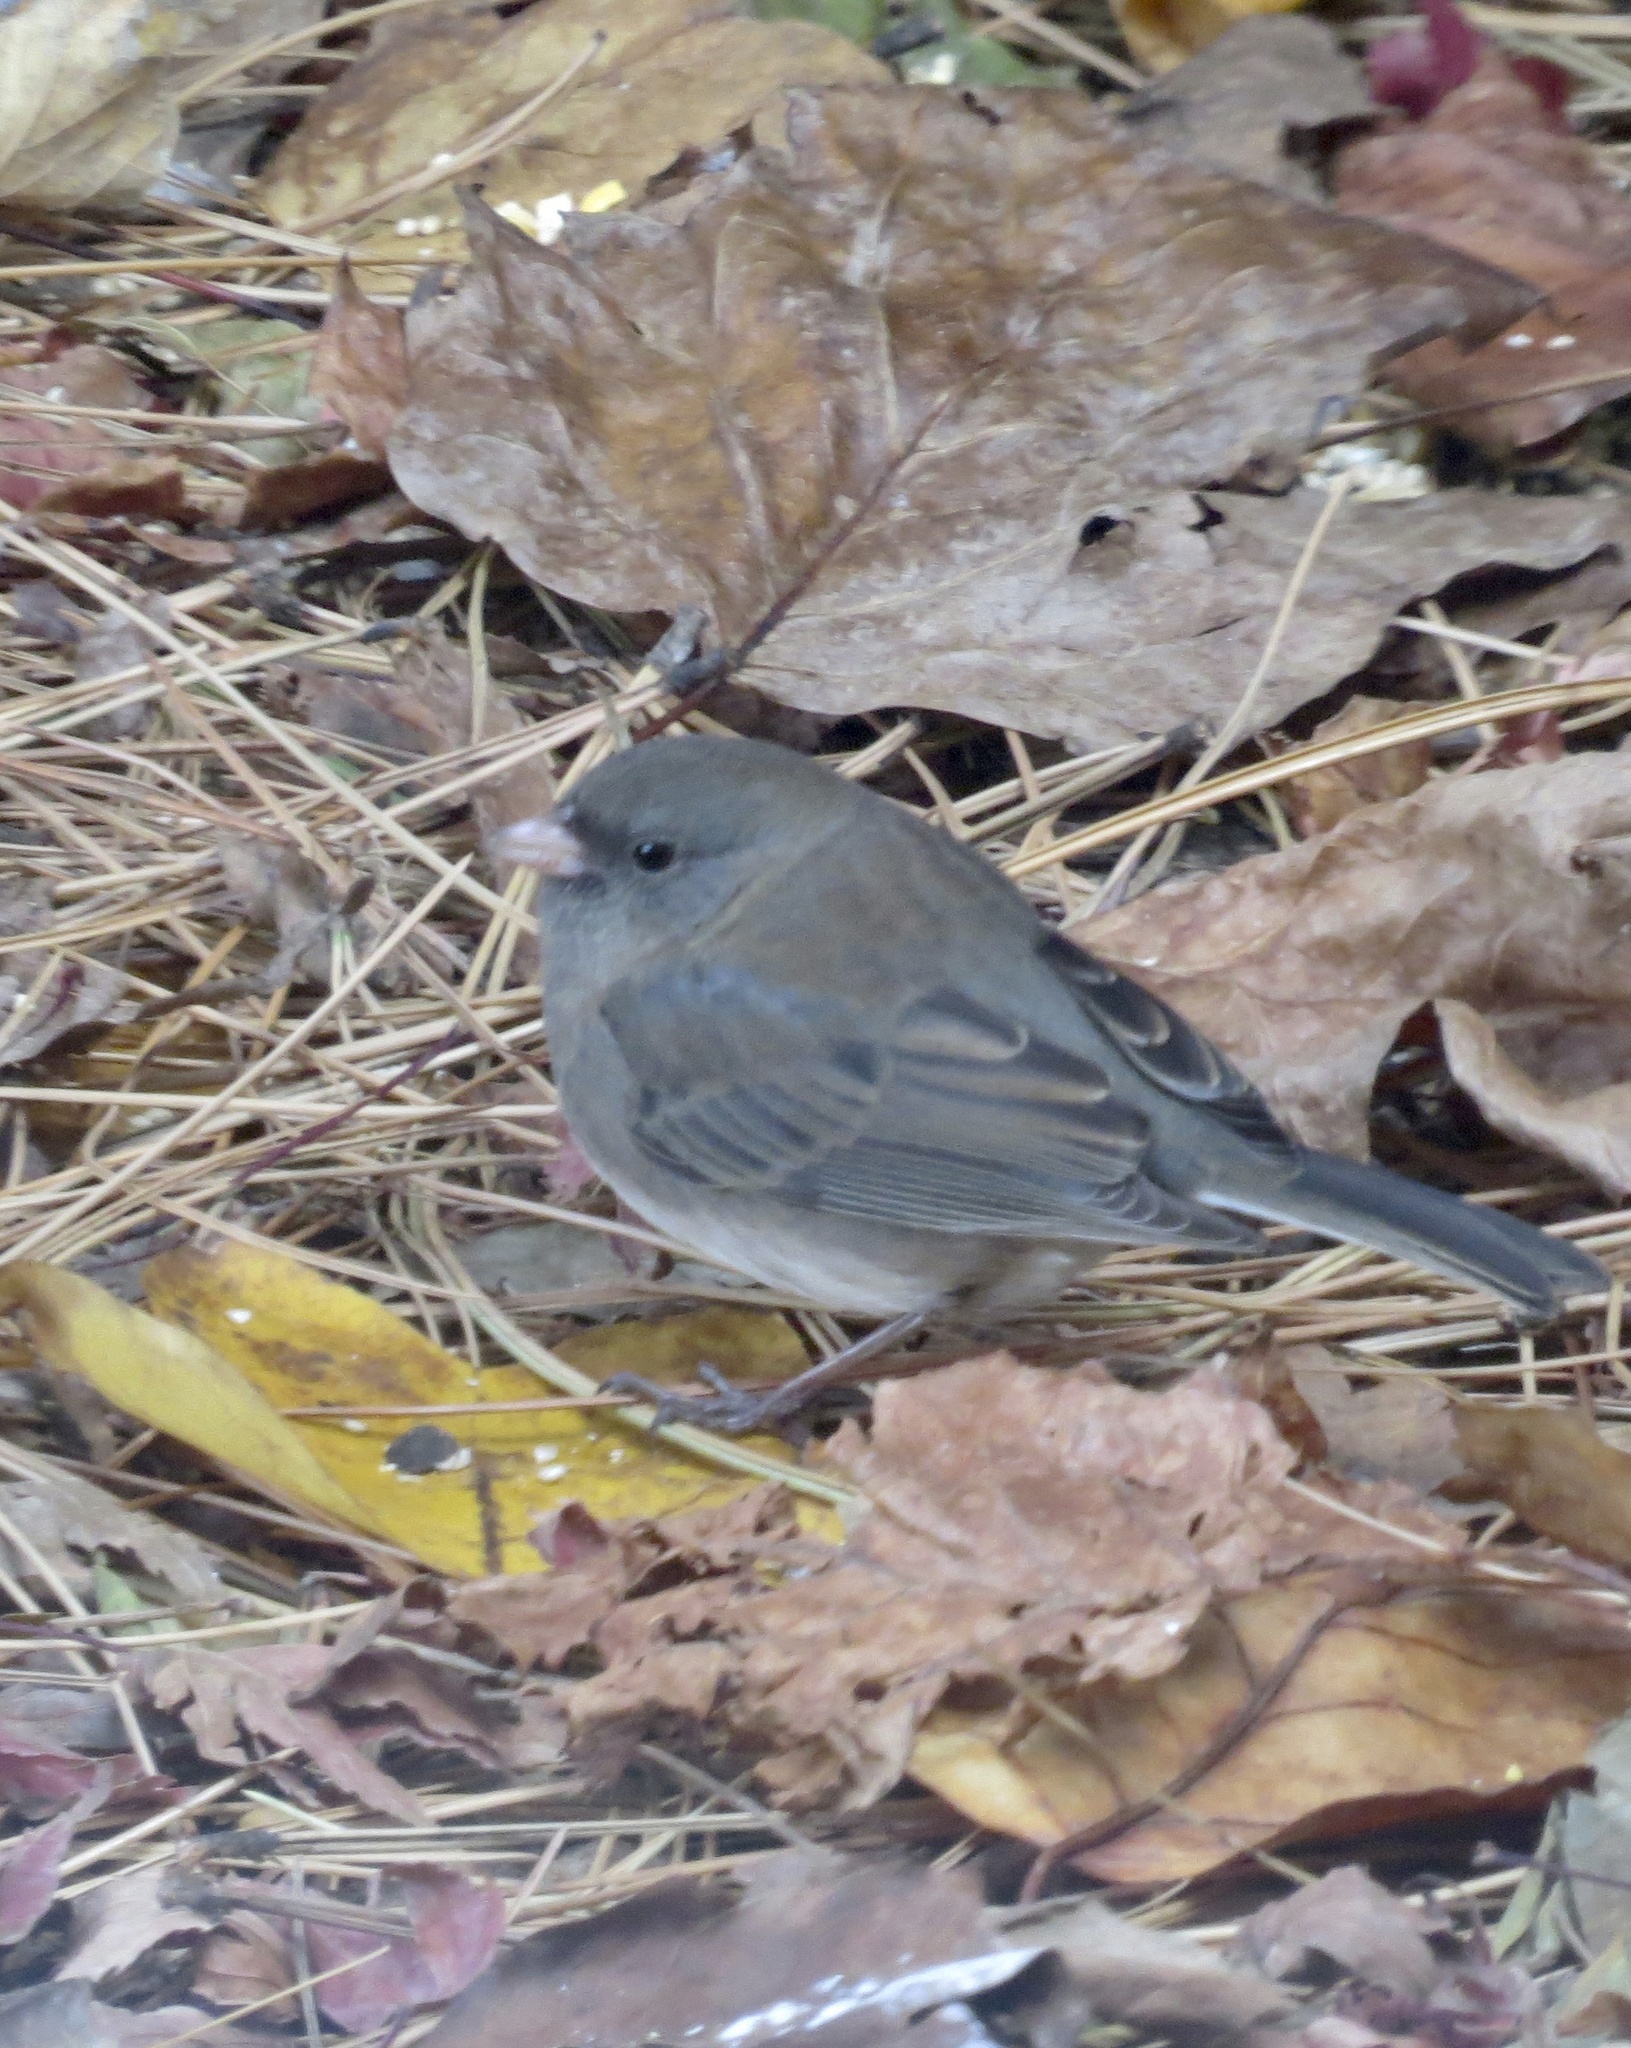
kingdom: Animalia
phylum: Chordata
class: Aves
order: Passeriformes
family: Passerellidae
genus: Junco
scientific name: Junco hyemalis
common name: Dark-eyed junco
